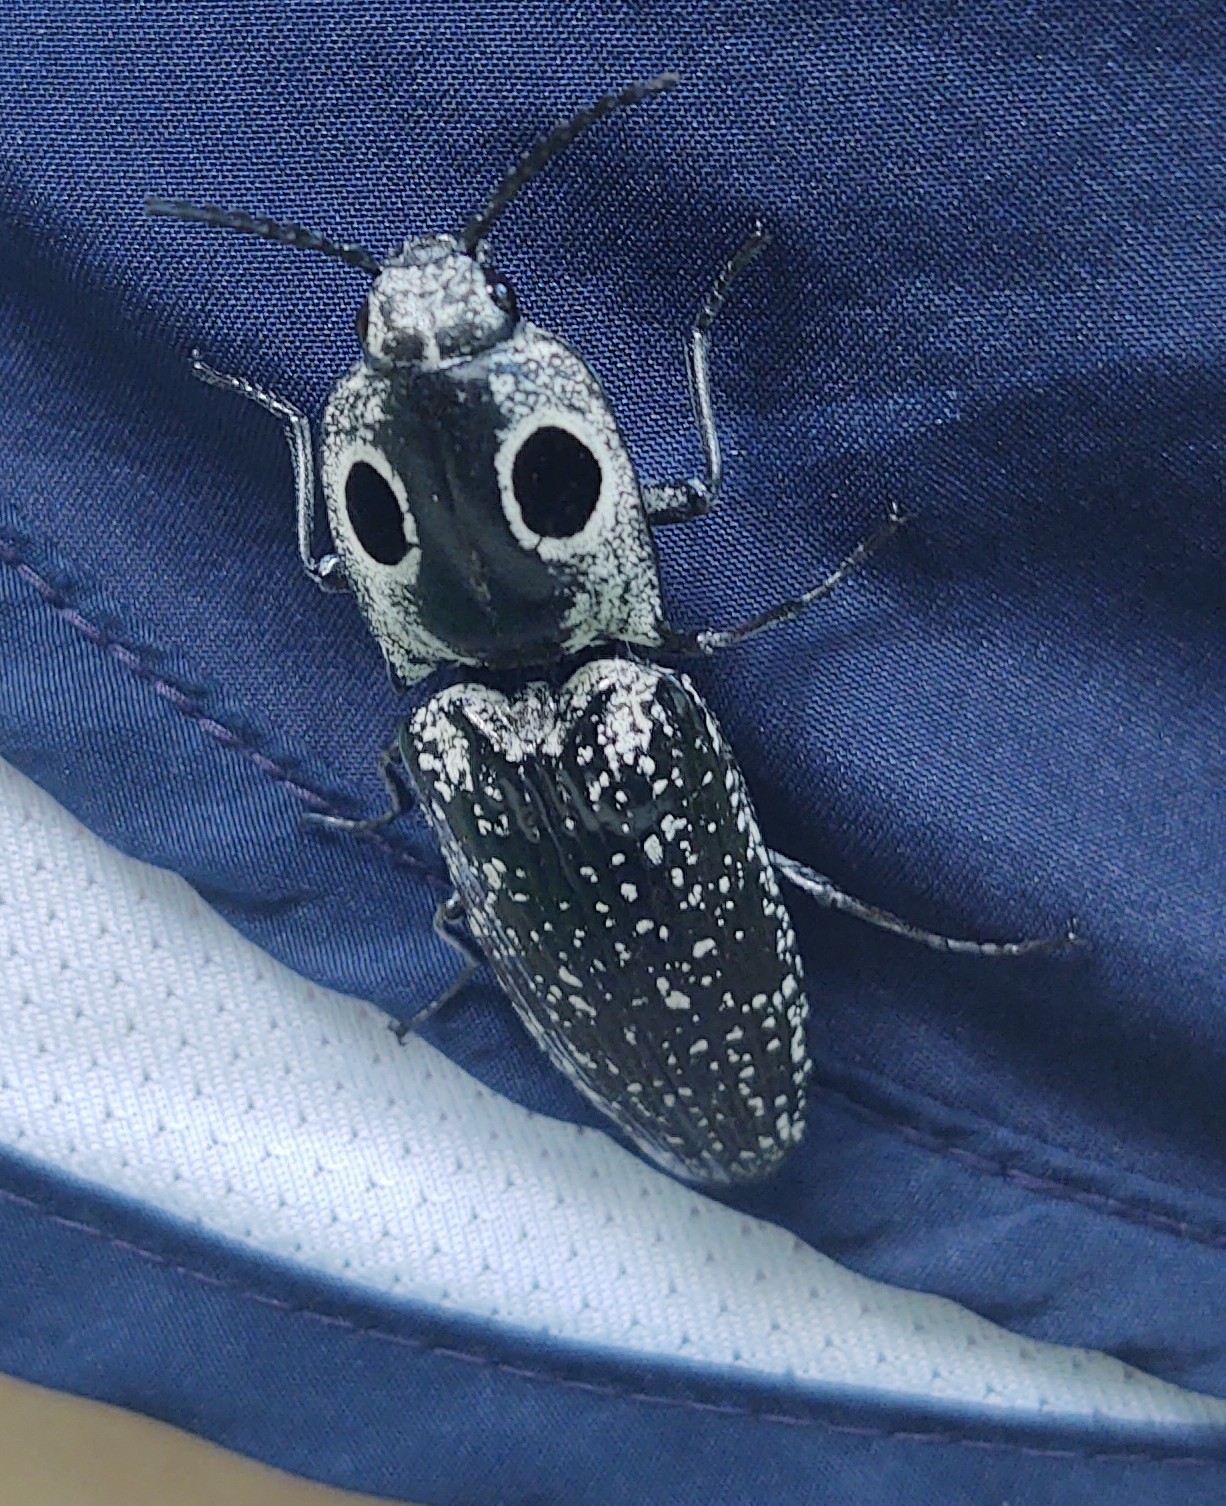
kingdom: Animalia
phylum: Arthropoda
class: Insecta
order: Coleoptera
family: Elateridae
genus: Alaus
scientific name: Alaus oculatus
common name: Eastern eyed click beetle
